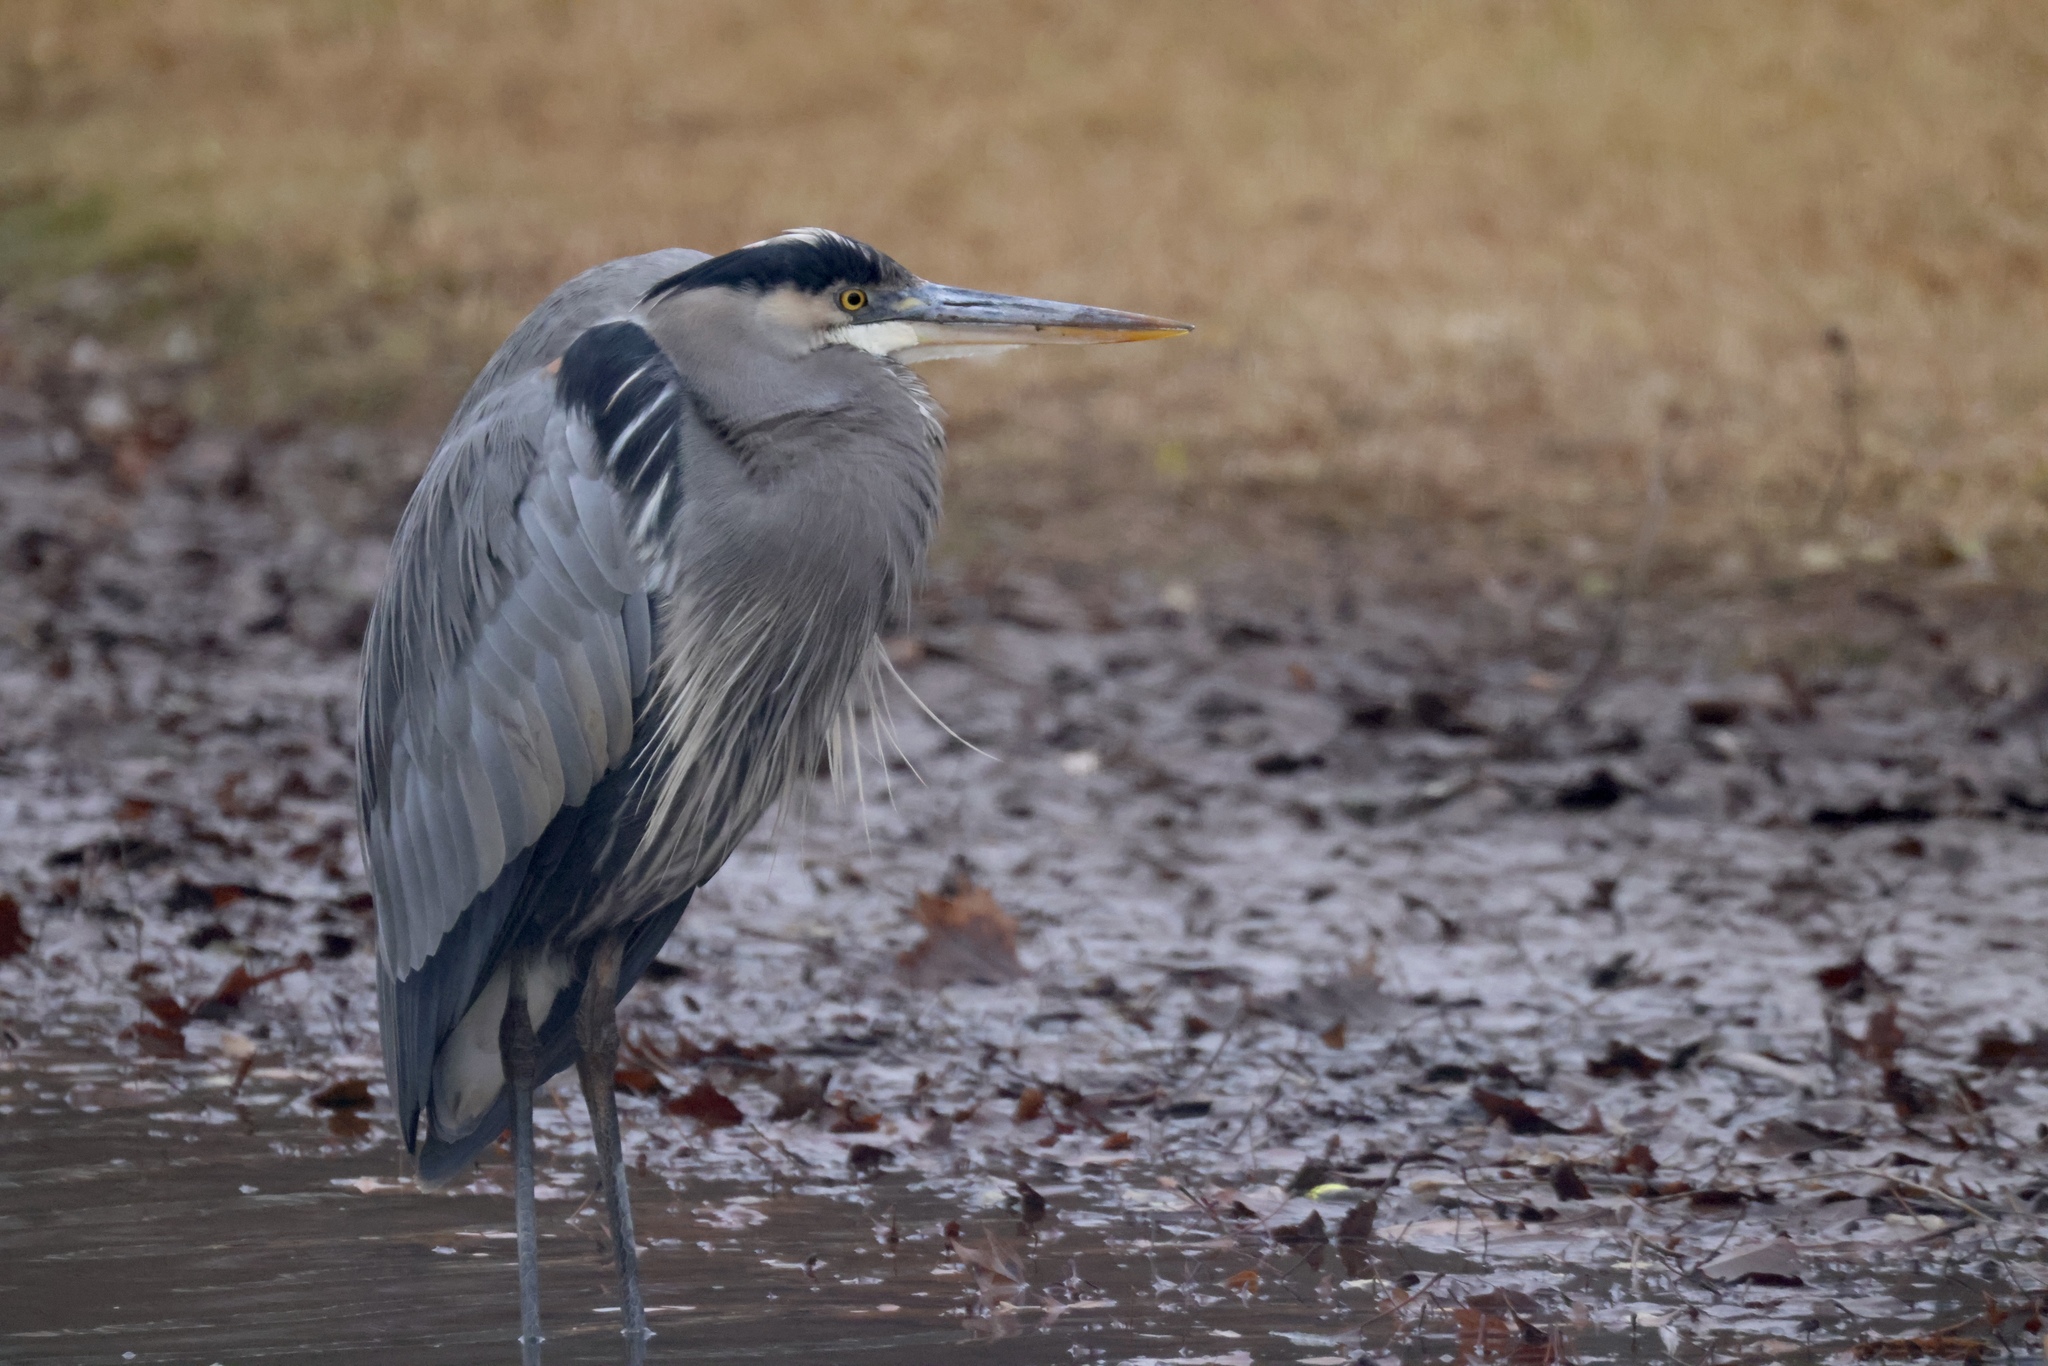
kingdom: Animalia
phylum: Chordata
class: Aves
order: Pelecaniformes
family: Ardeidae
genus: Ardea
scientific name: Ardea herodias
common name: Great blue heron
